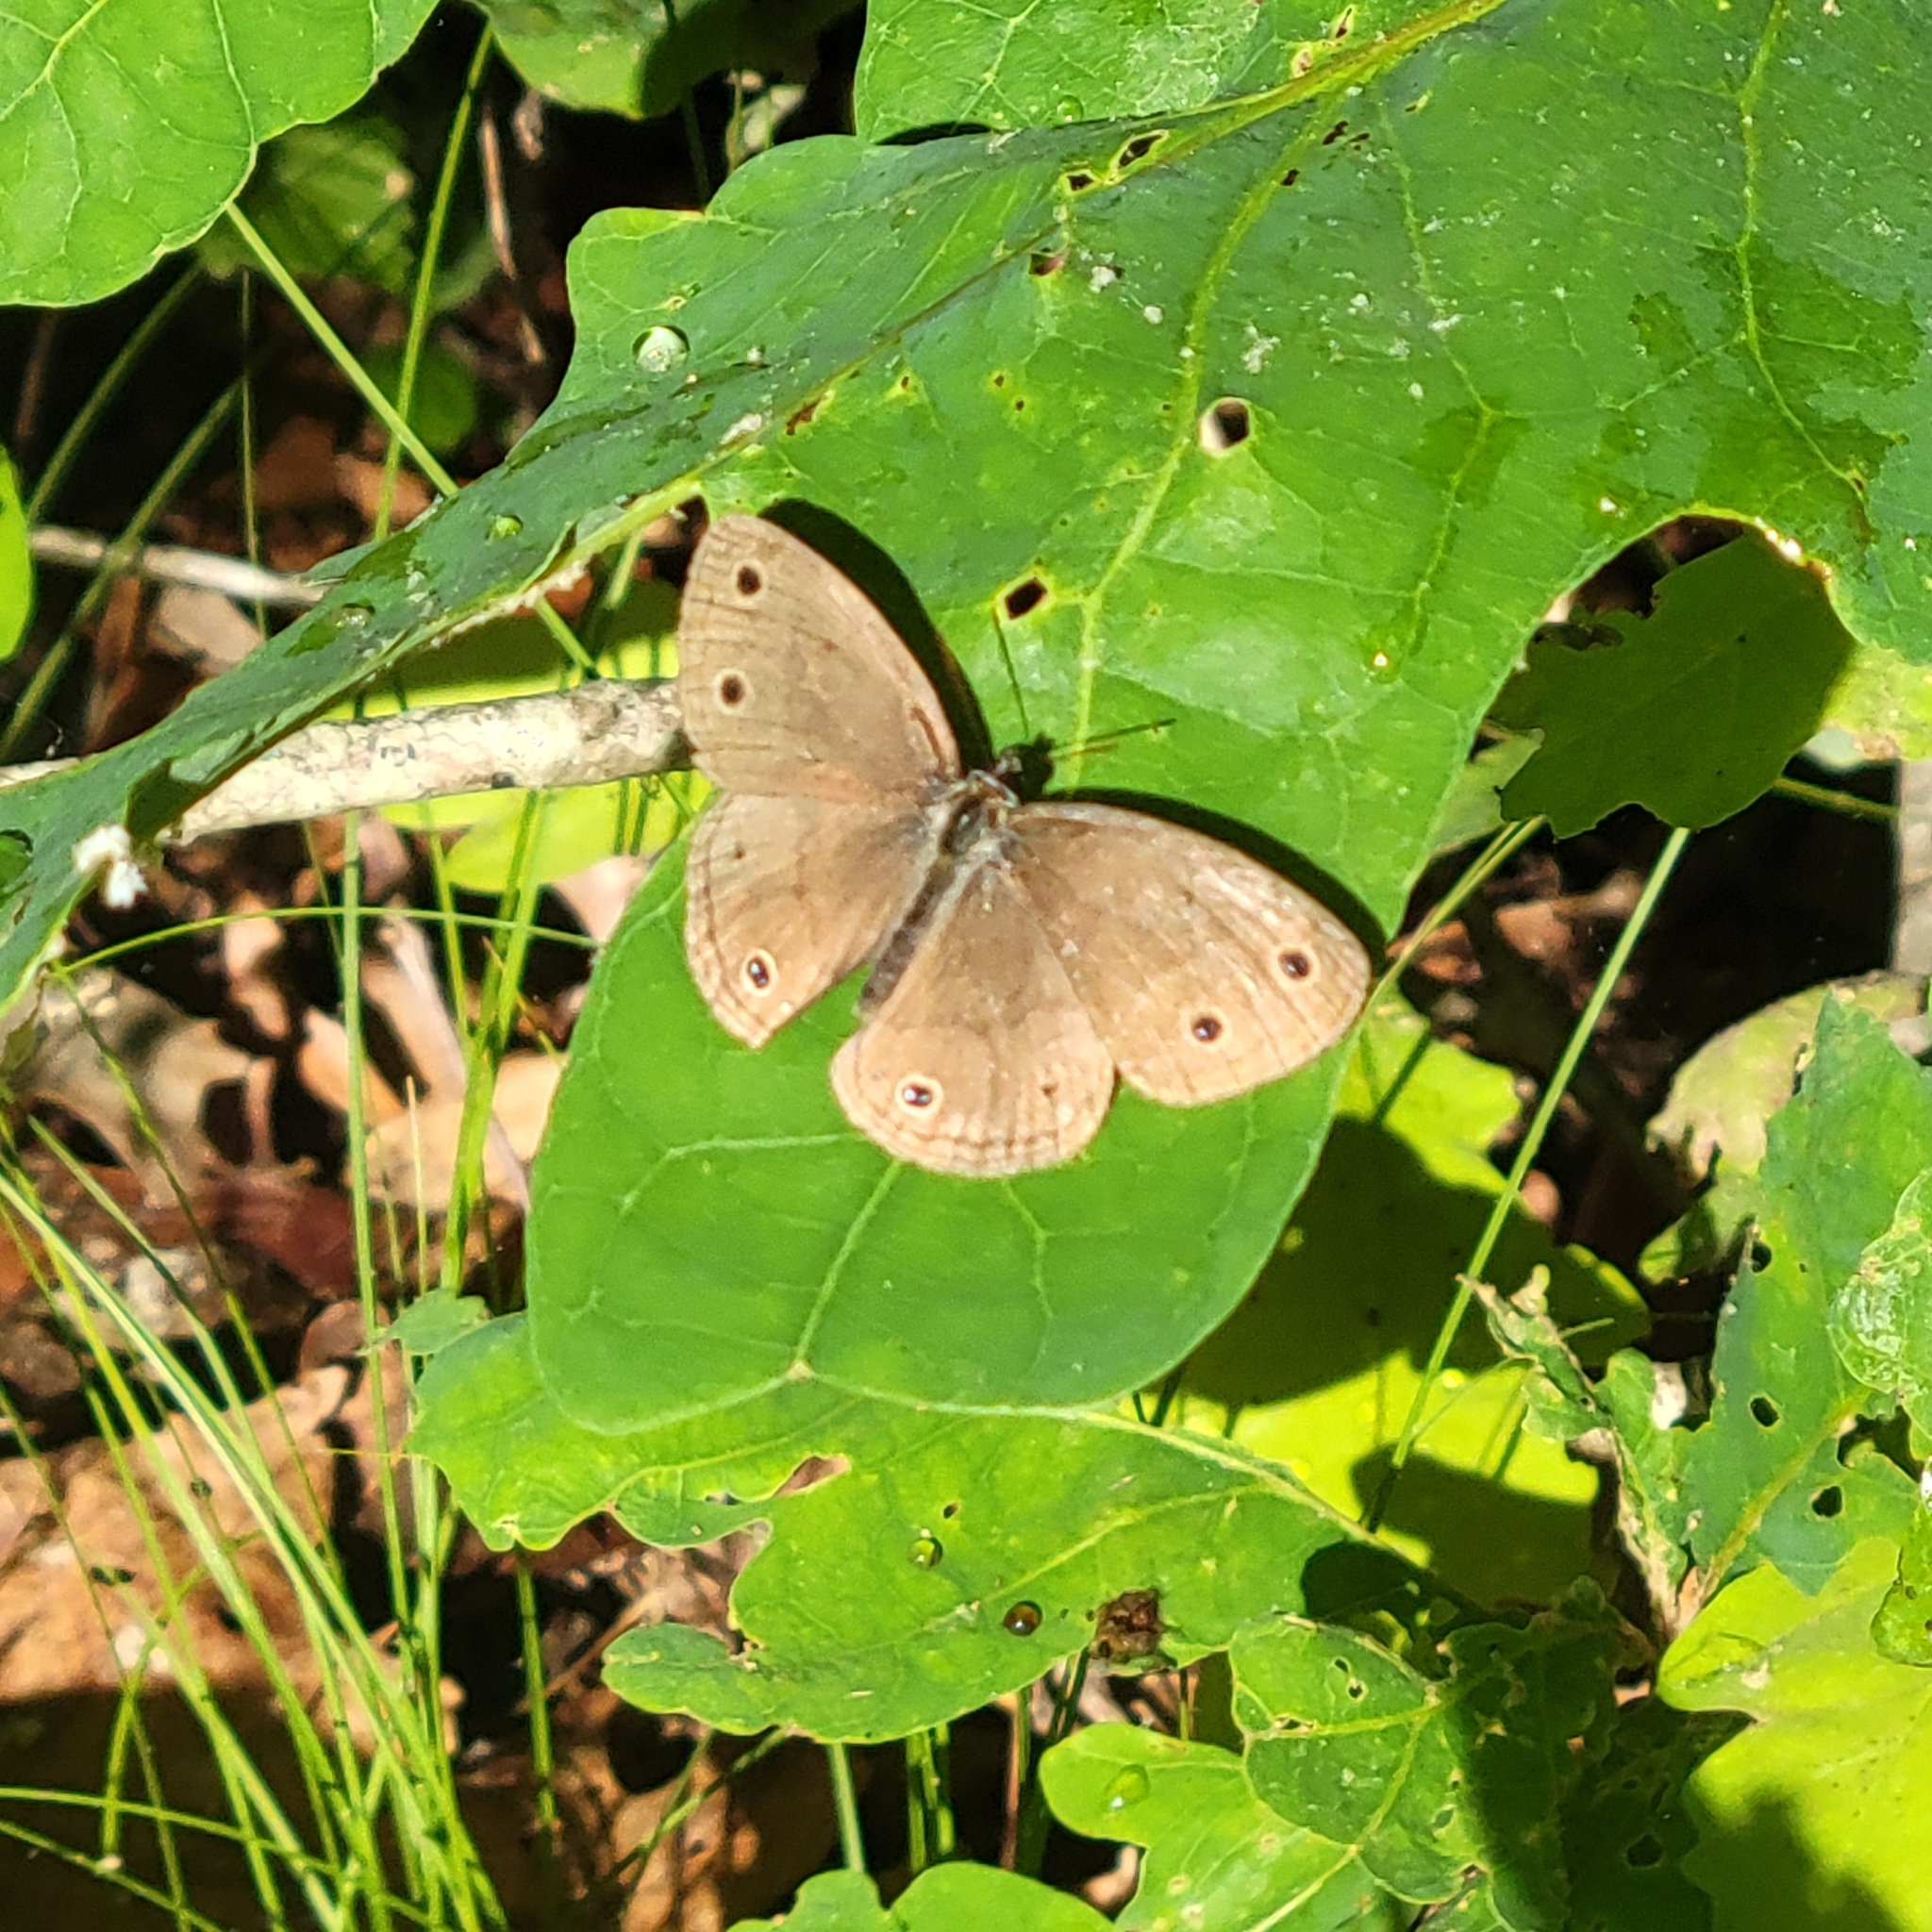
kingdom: Animalia
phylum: Arthropoda
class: Insecta
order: Lepidoptera
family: Nymphalidae
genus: Euptychia
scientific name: Euptychia cymela
